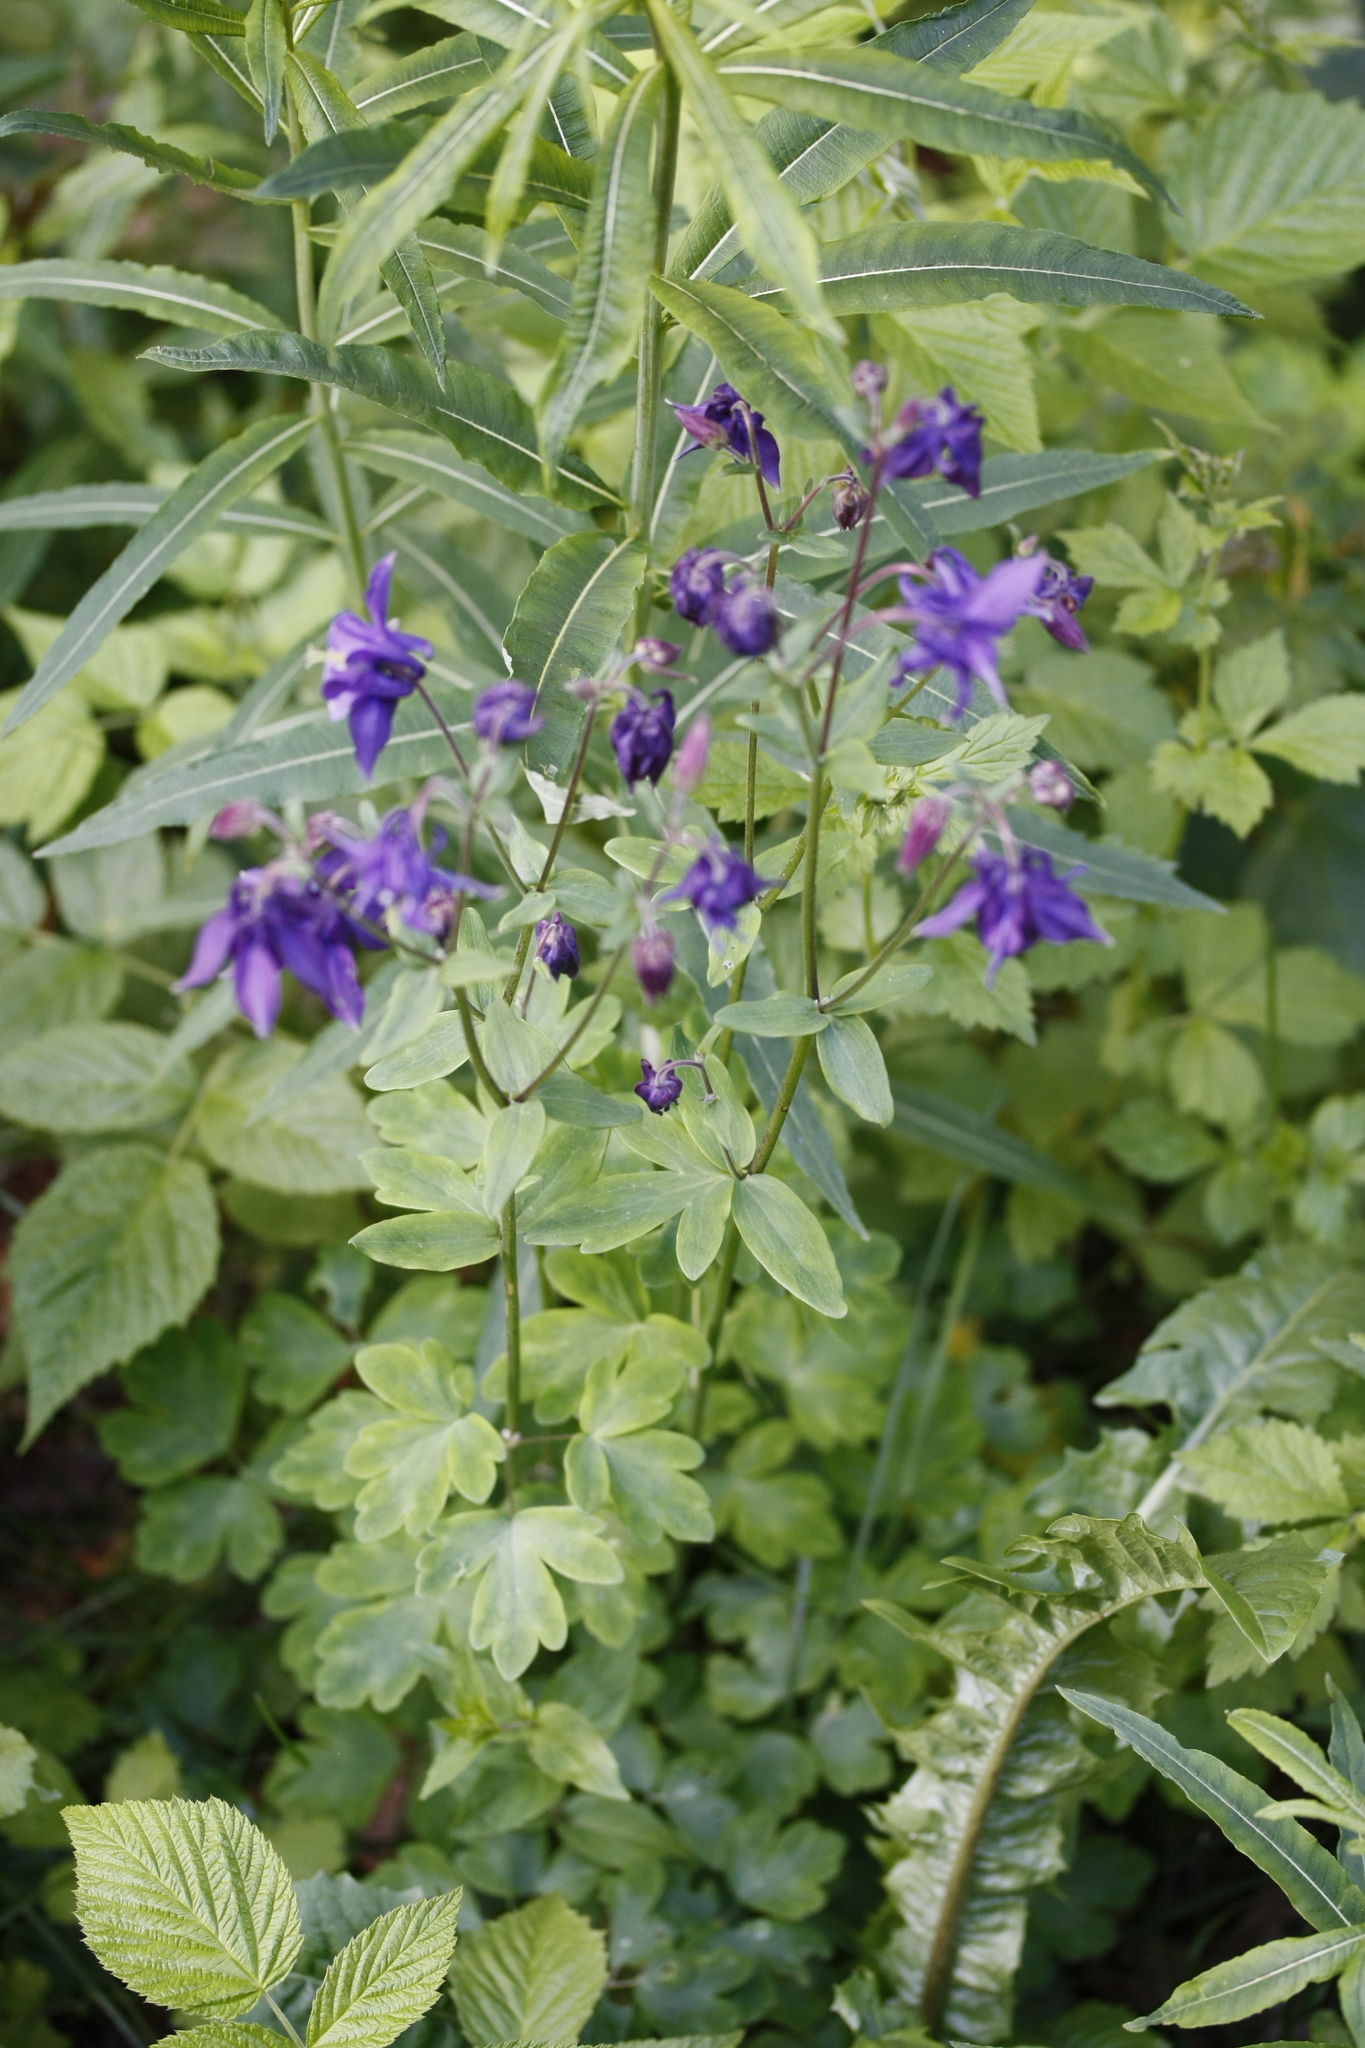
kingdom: Plantae
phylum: Tracheophyta
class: Magnoliopsida
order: Ranunculales
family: Ranunculaceae
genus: Aquilegia
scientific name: Aquilegia vulgaris
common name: Columbine
